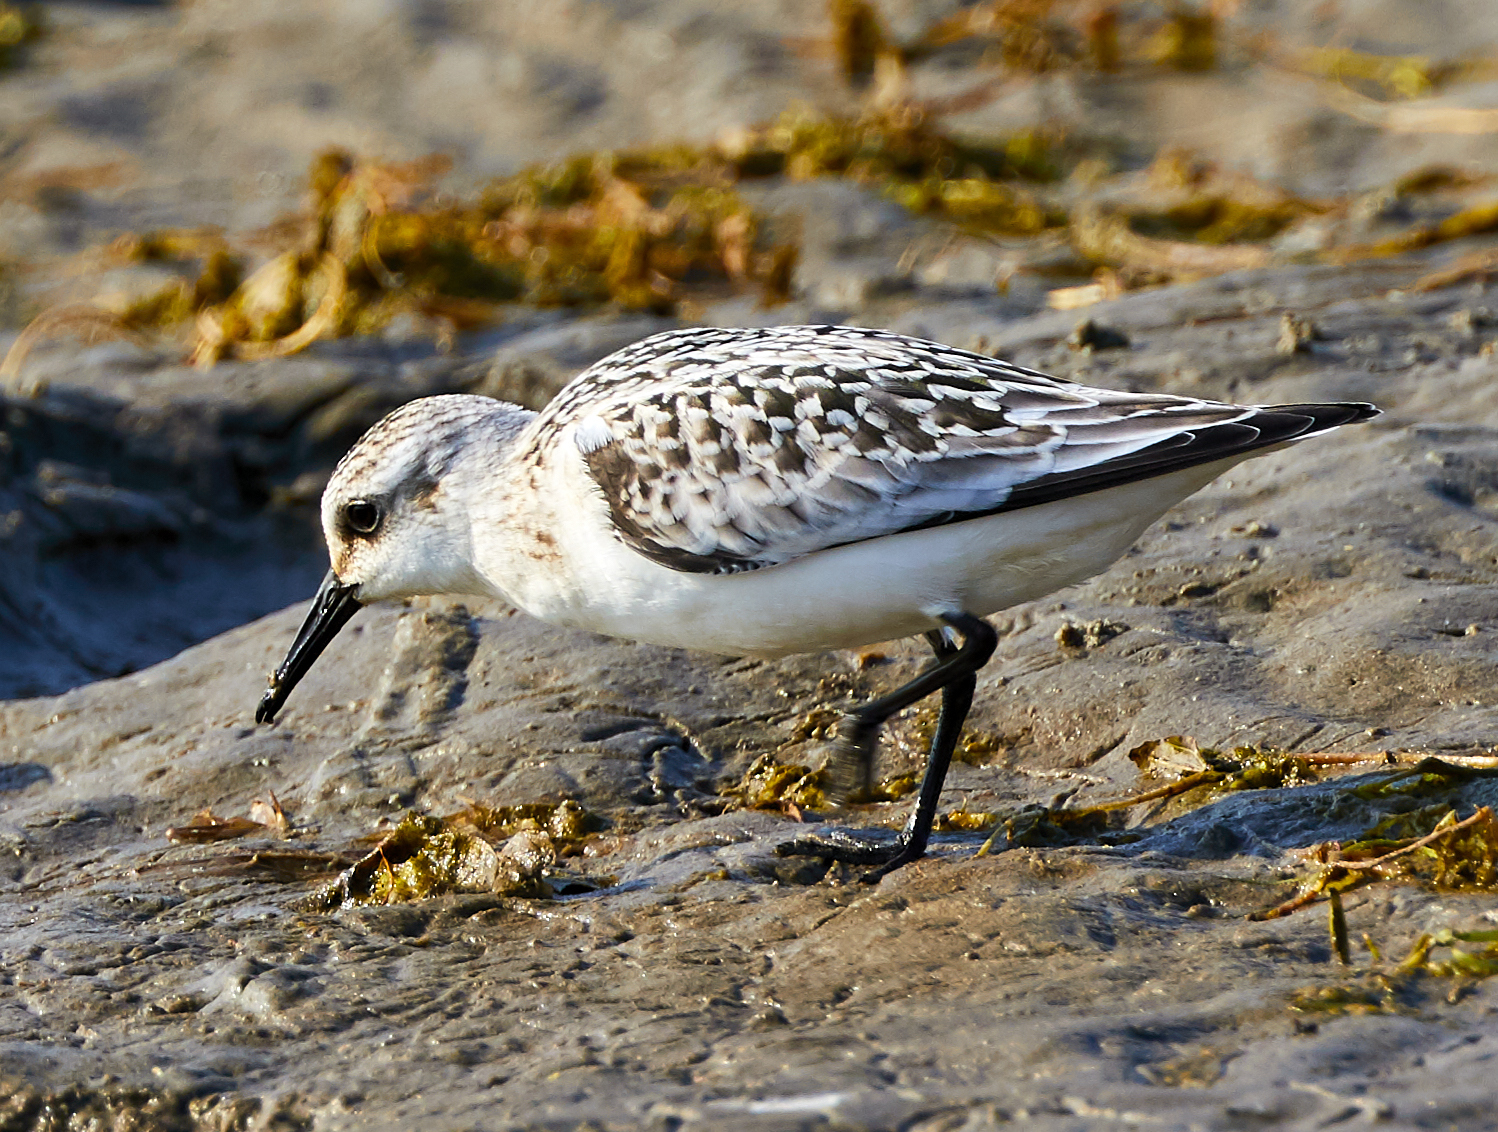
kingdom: Animalia
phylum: Chordata
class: Aves
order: Charadriiformes
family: Scolopacidae
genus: Calidris
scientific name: Calidris alba
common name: Sanderling
